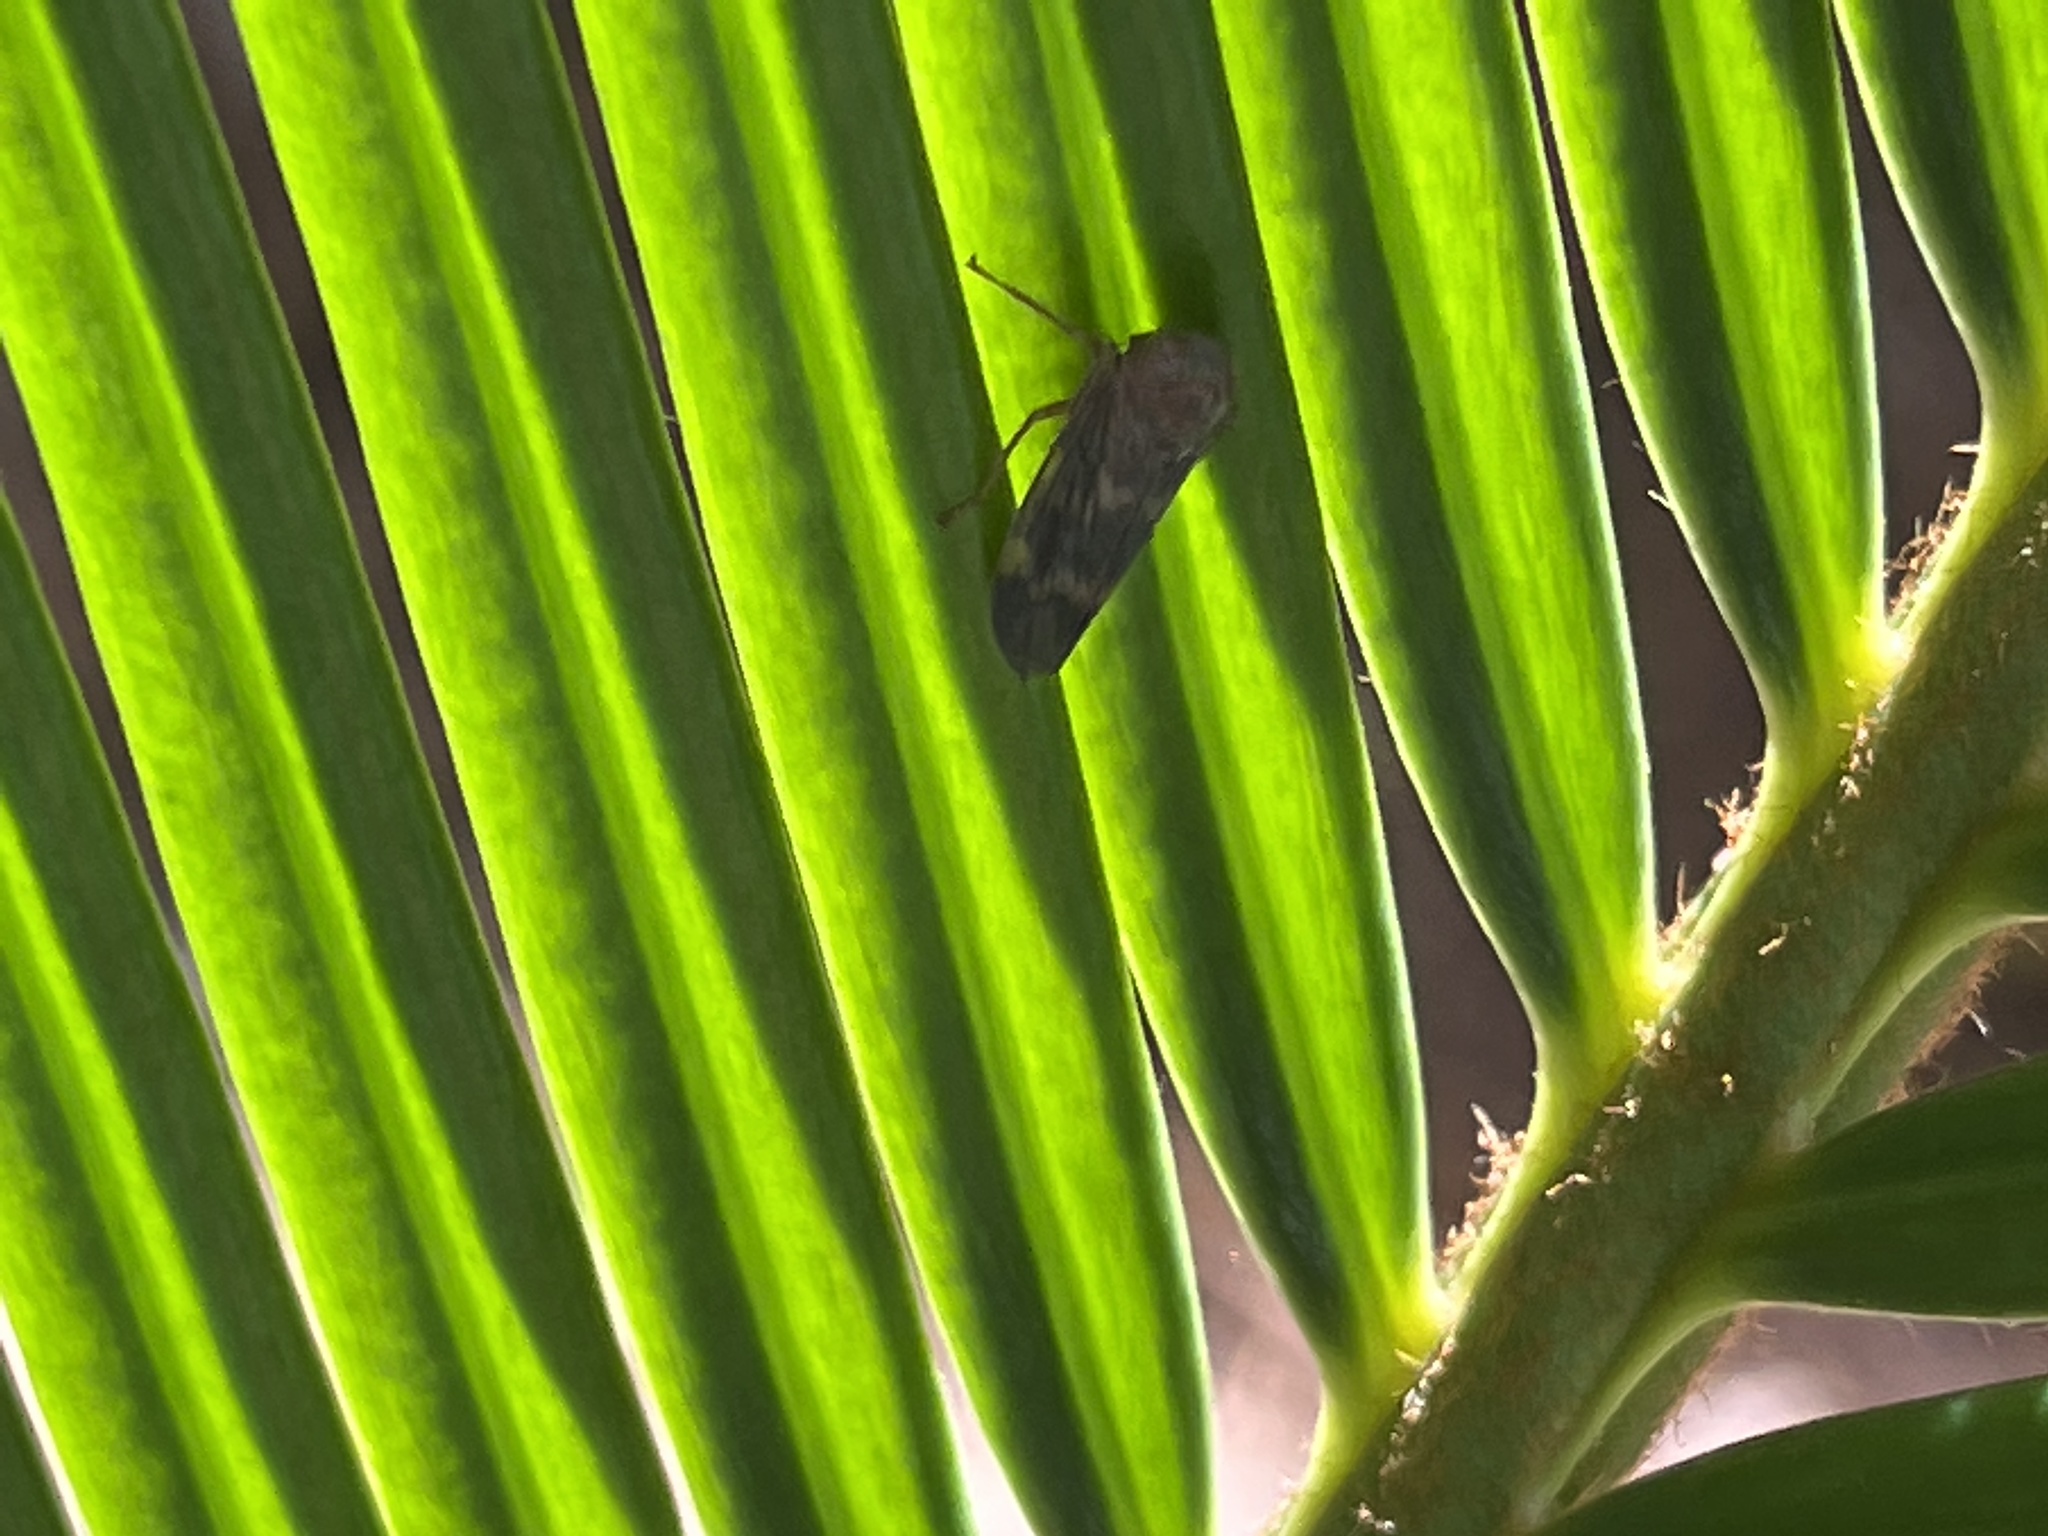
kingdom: Animalia
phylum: Arthropoda
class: Insecta
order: Hemiptera
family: Cicadellidae
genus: Jikradia
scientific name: Jikradia olitoria
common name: Coppery leafhopper
